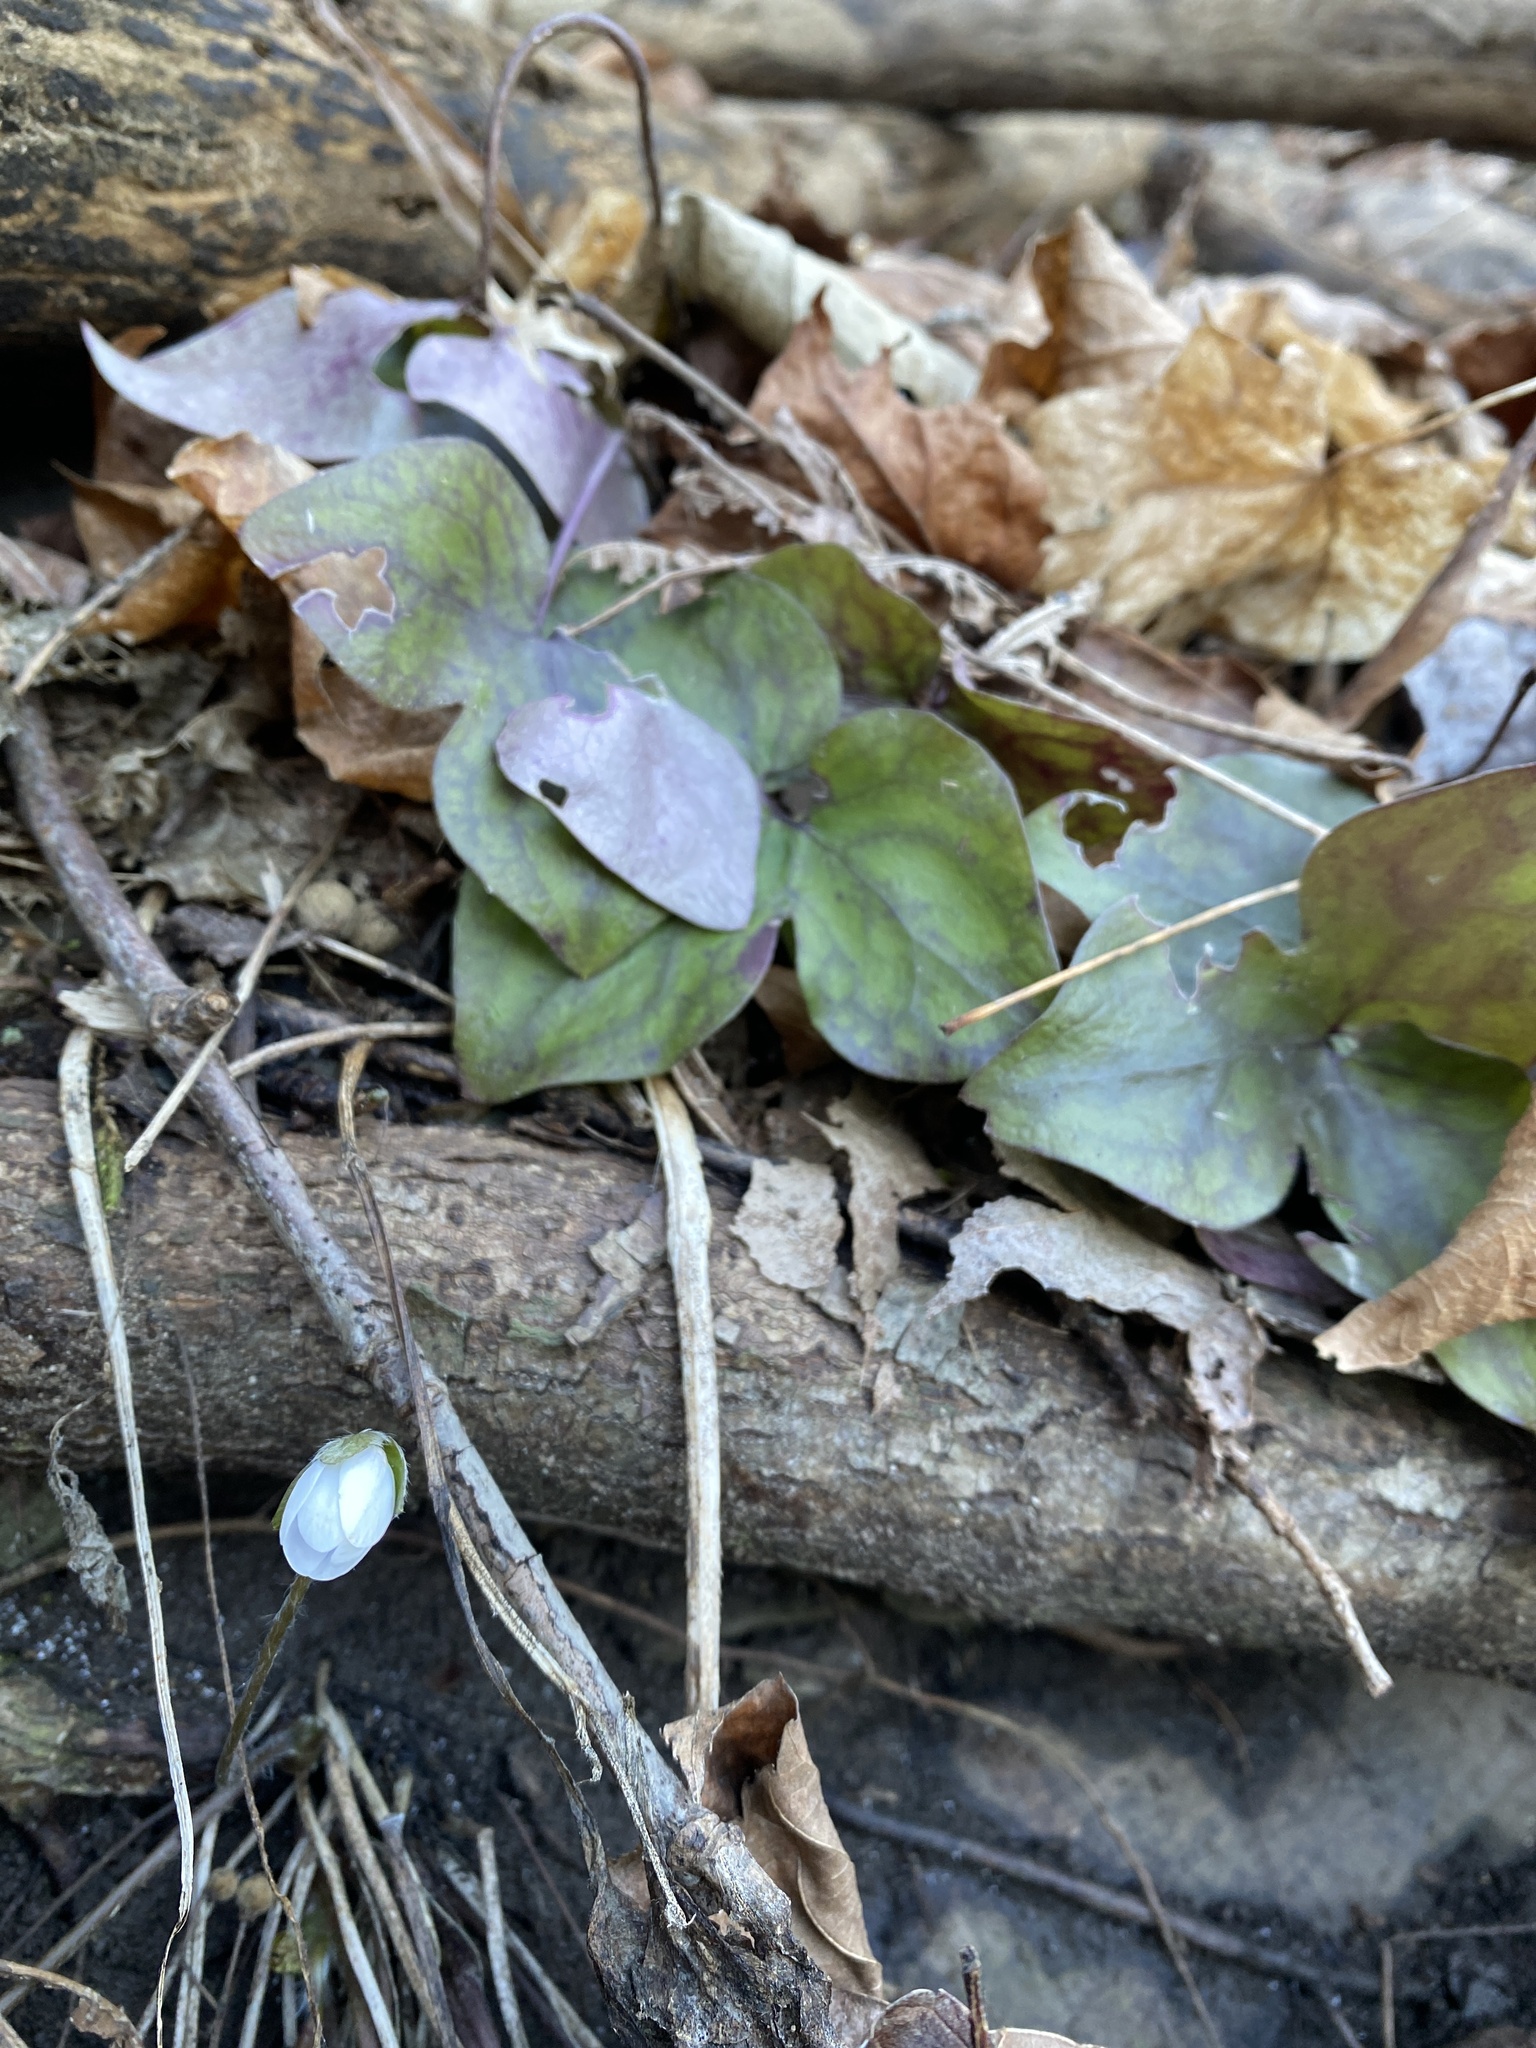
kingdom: Plantae
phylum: Tracheophyta
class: Magnoliopsida
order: Ranunculales
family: Ranunculaceae
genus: Hepatica
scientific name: Hepatica acutiloba
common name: Sharp-lobed hepatica
